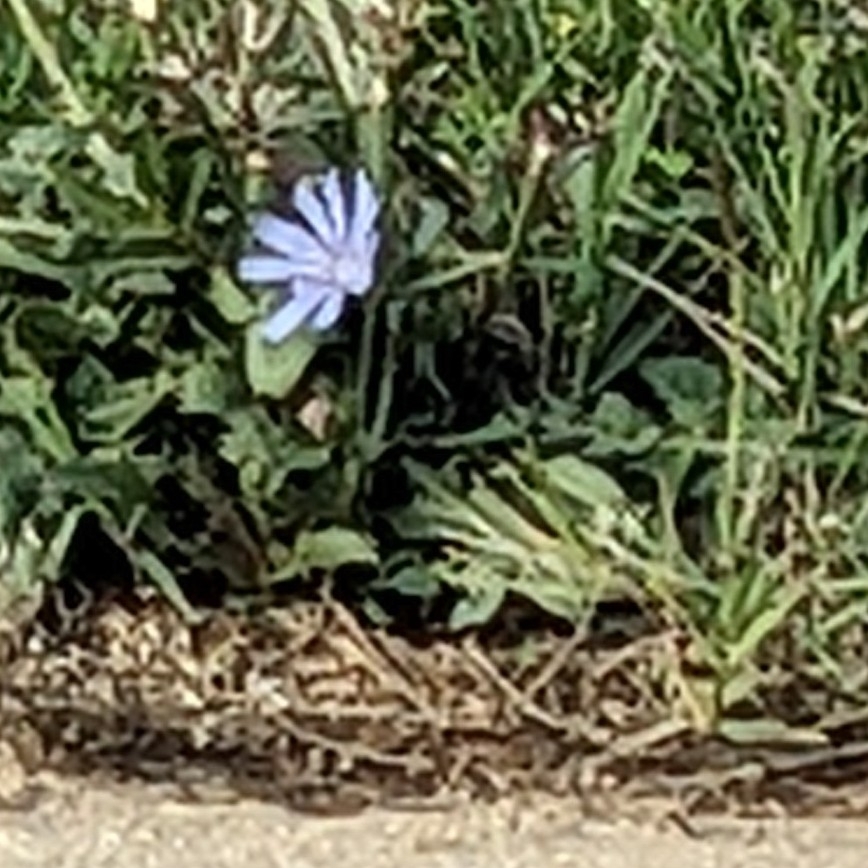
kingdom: Plantae
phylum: Tracheophyta
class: Magnoliopsida
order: Asterales
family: Asteraceae
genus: Cichorium
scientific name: Cichorium intybus
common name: Chicory
